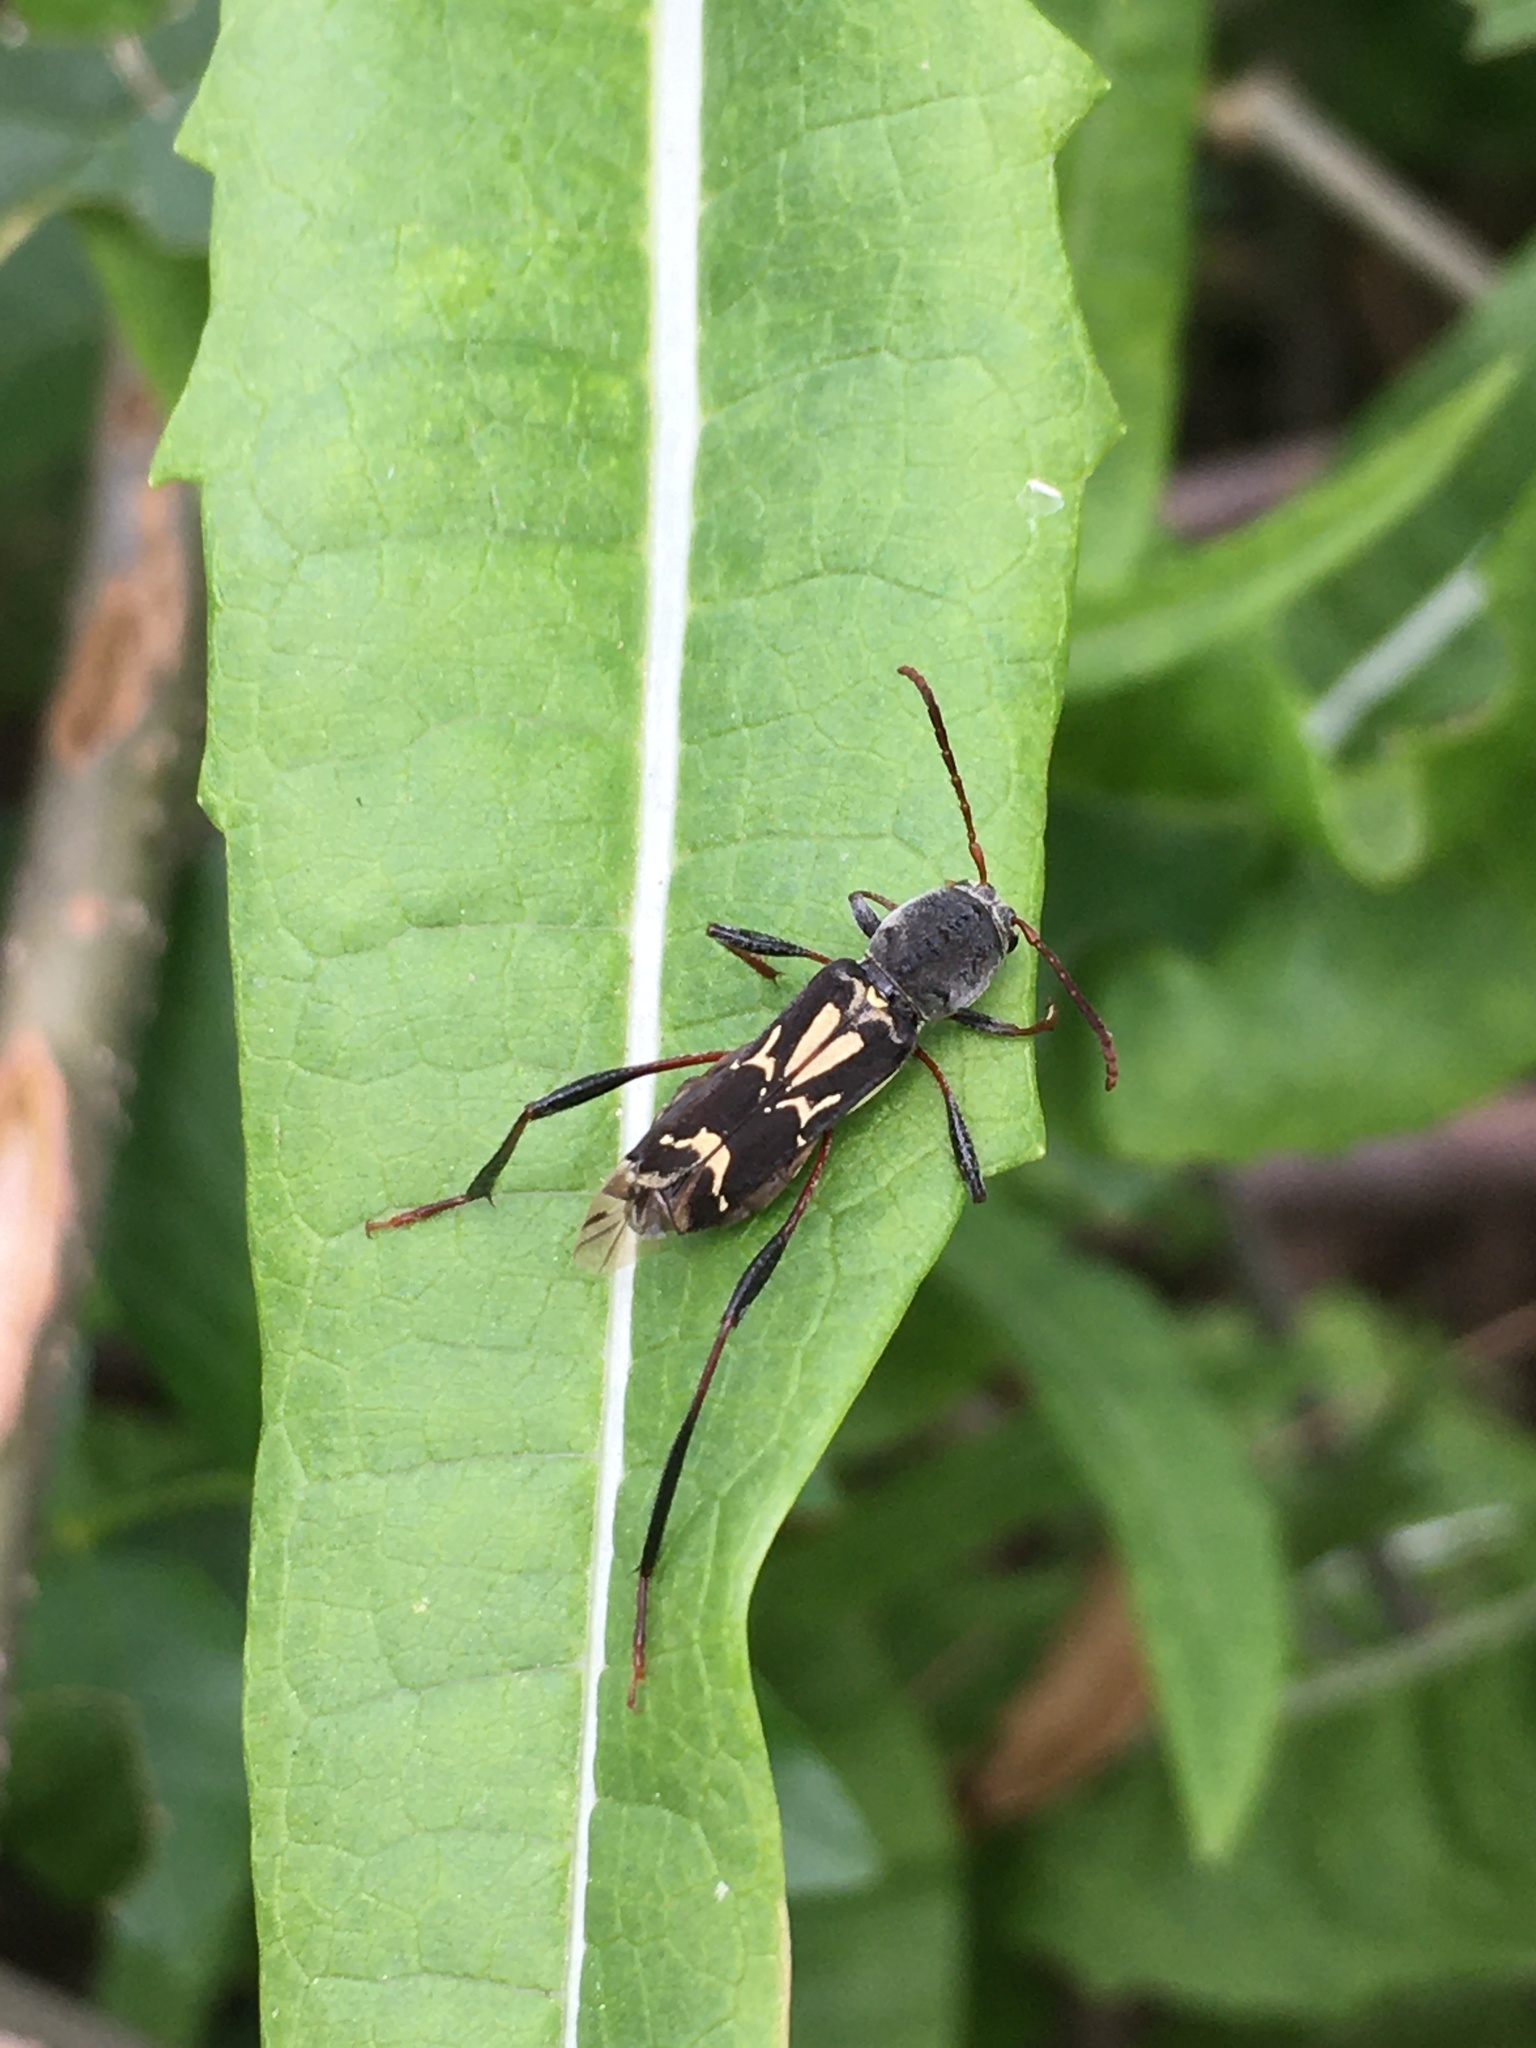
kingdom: Animalia
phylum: Arthropoda
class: Insecta
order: Coleoptera
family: Cerambycidae
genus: Neoclytus
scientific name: Neoclytus ypsilon
